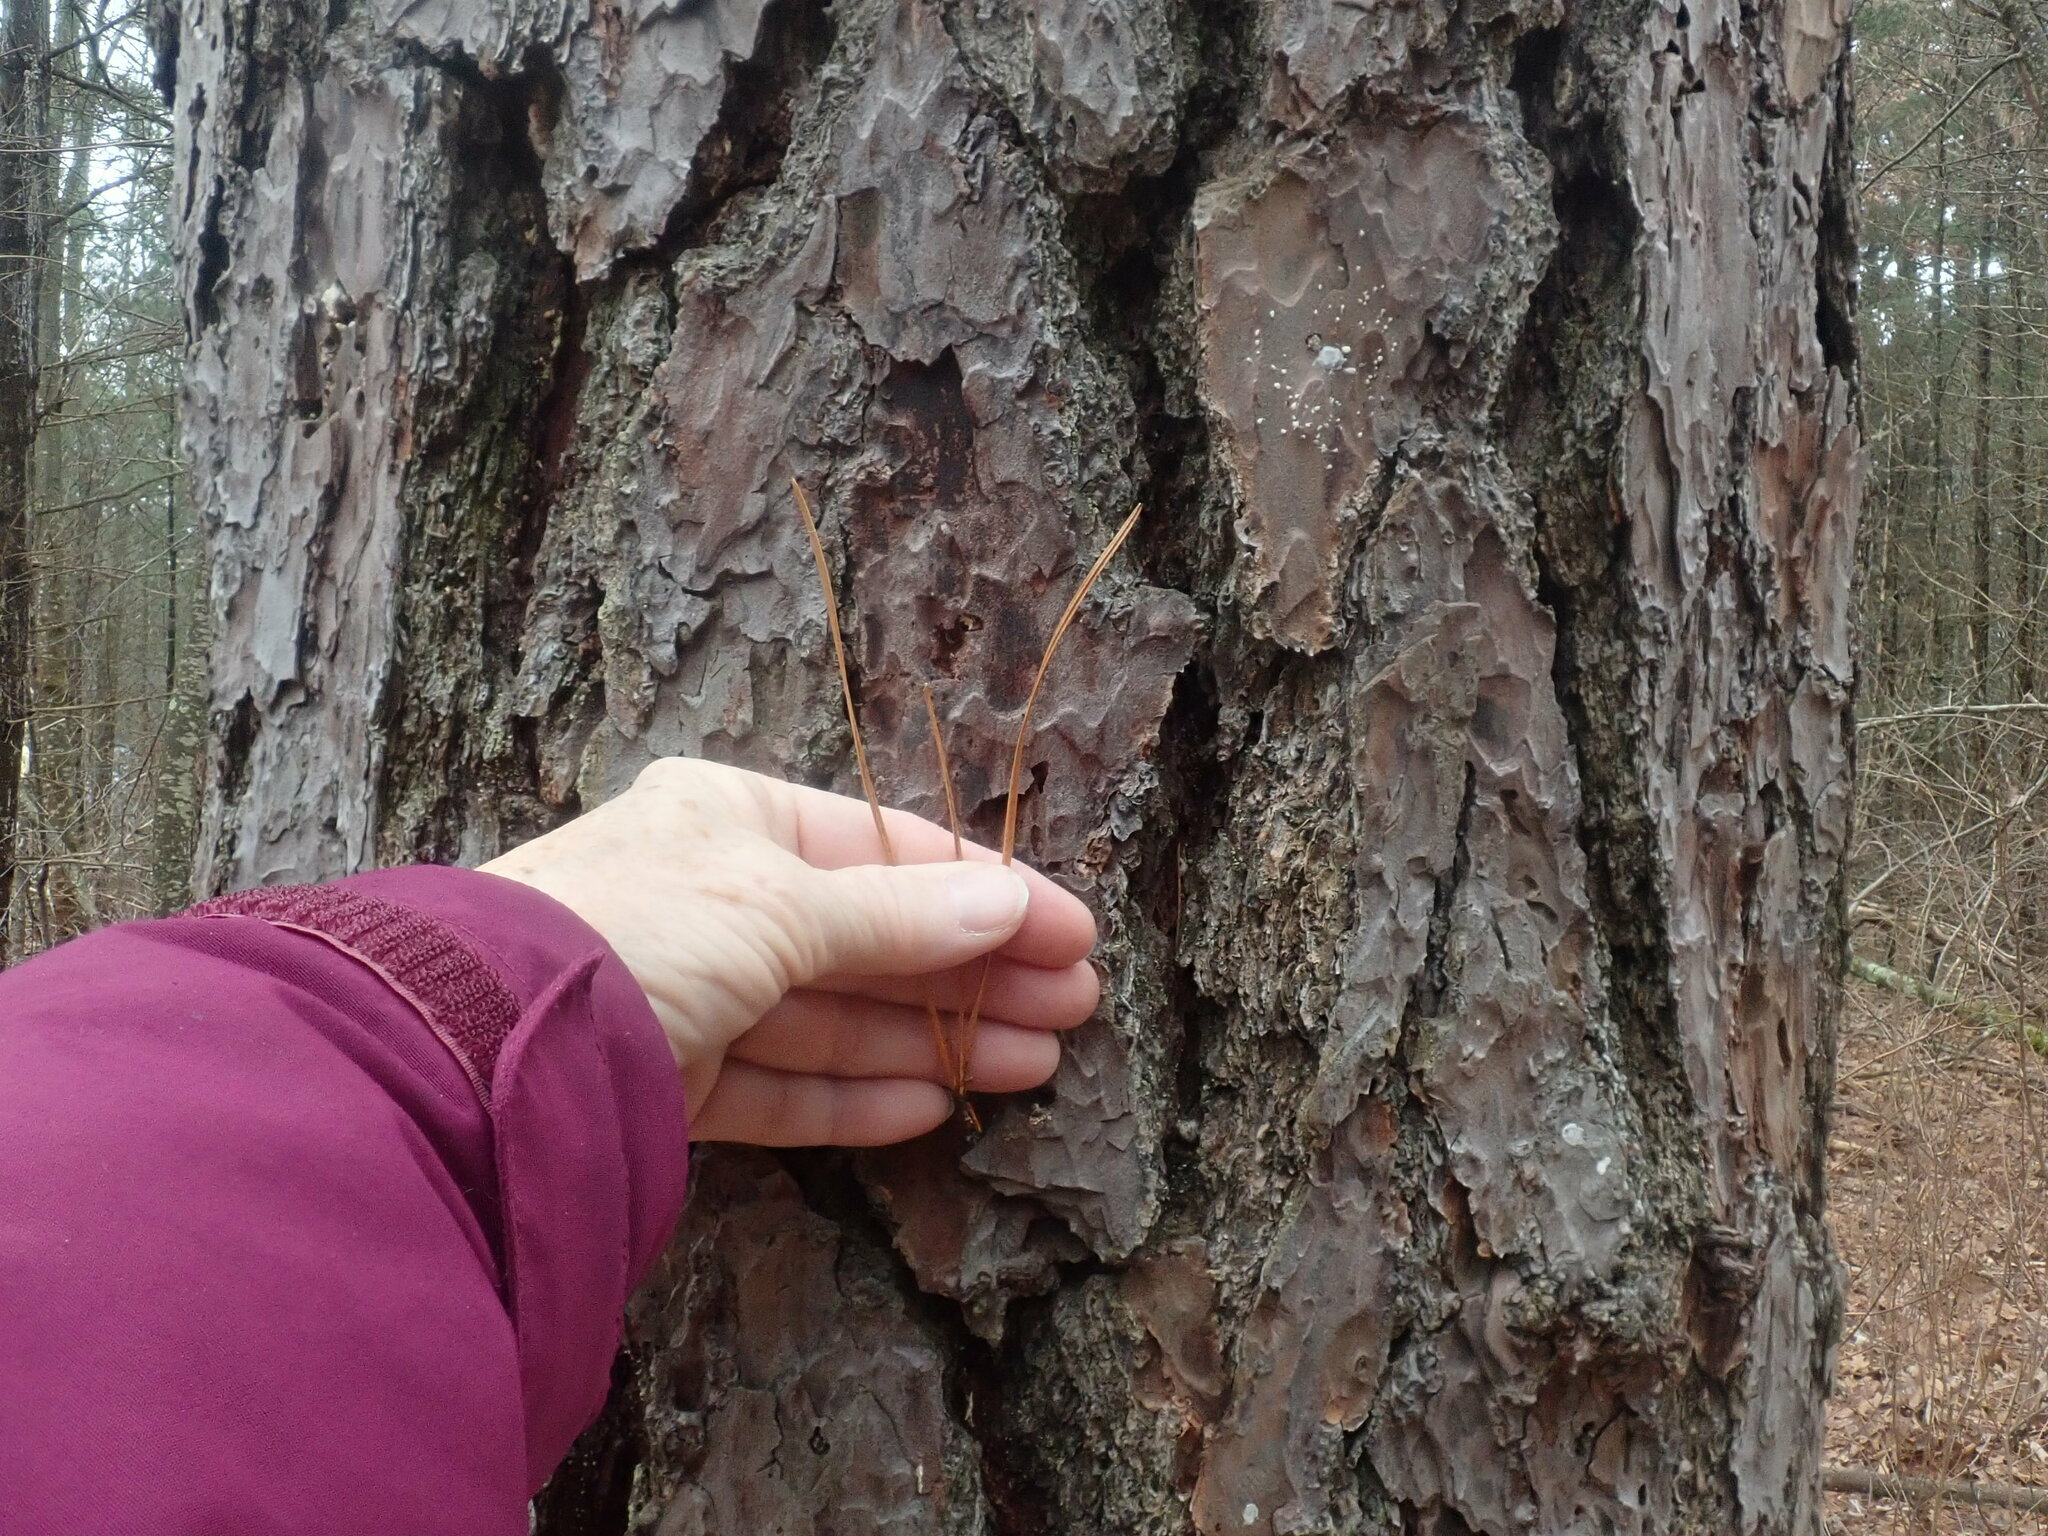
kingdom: Plantae
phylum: Tracheophyta
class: Pinopsida
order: Pinales
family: Pinaceae
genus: Pinus
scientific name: Pinus rigida
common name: Pitch pine
